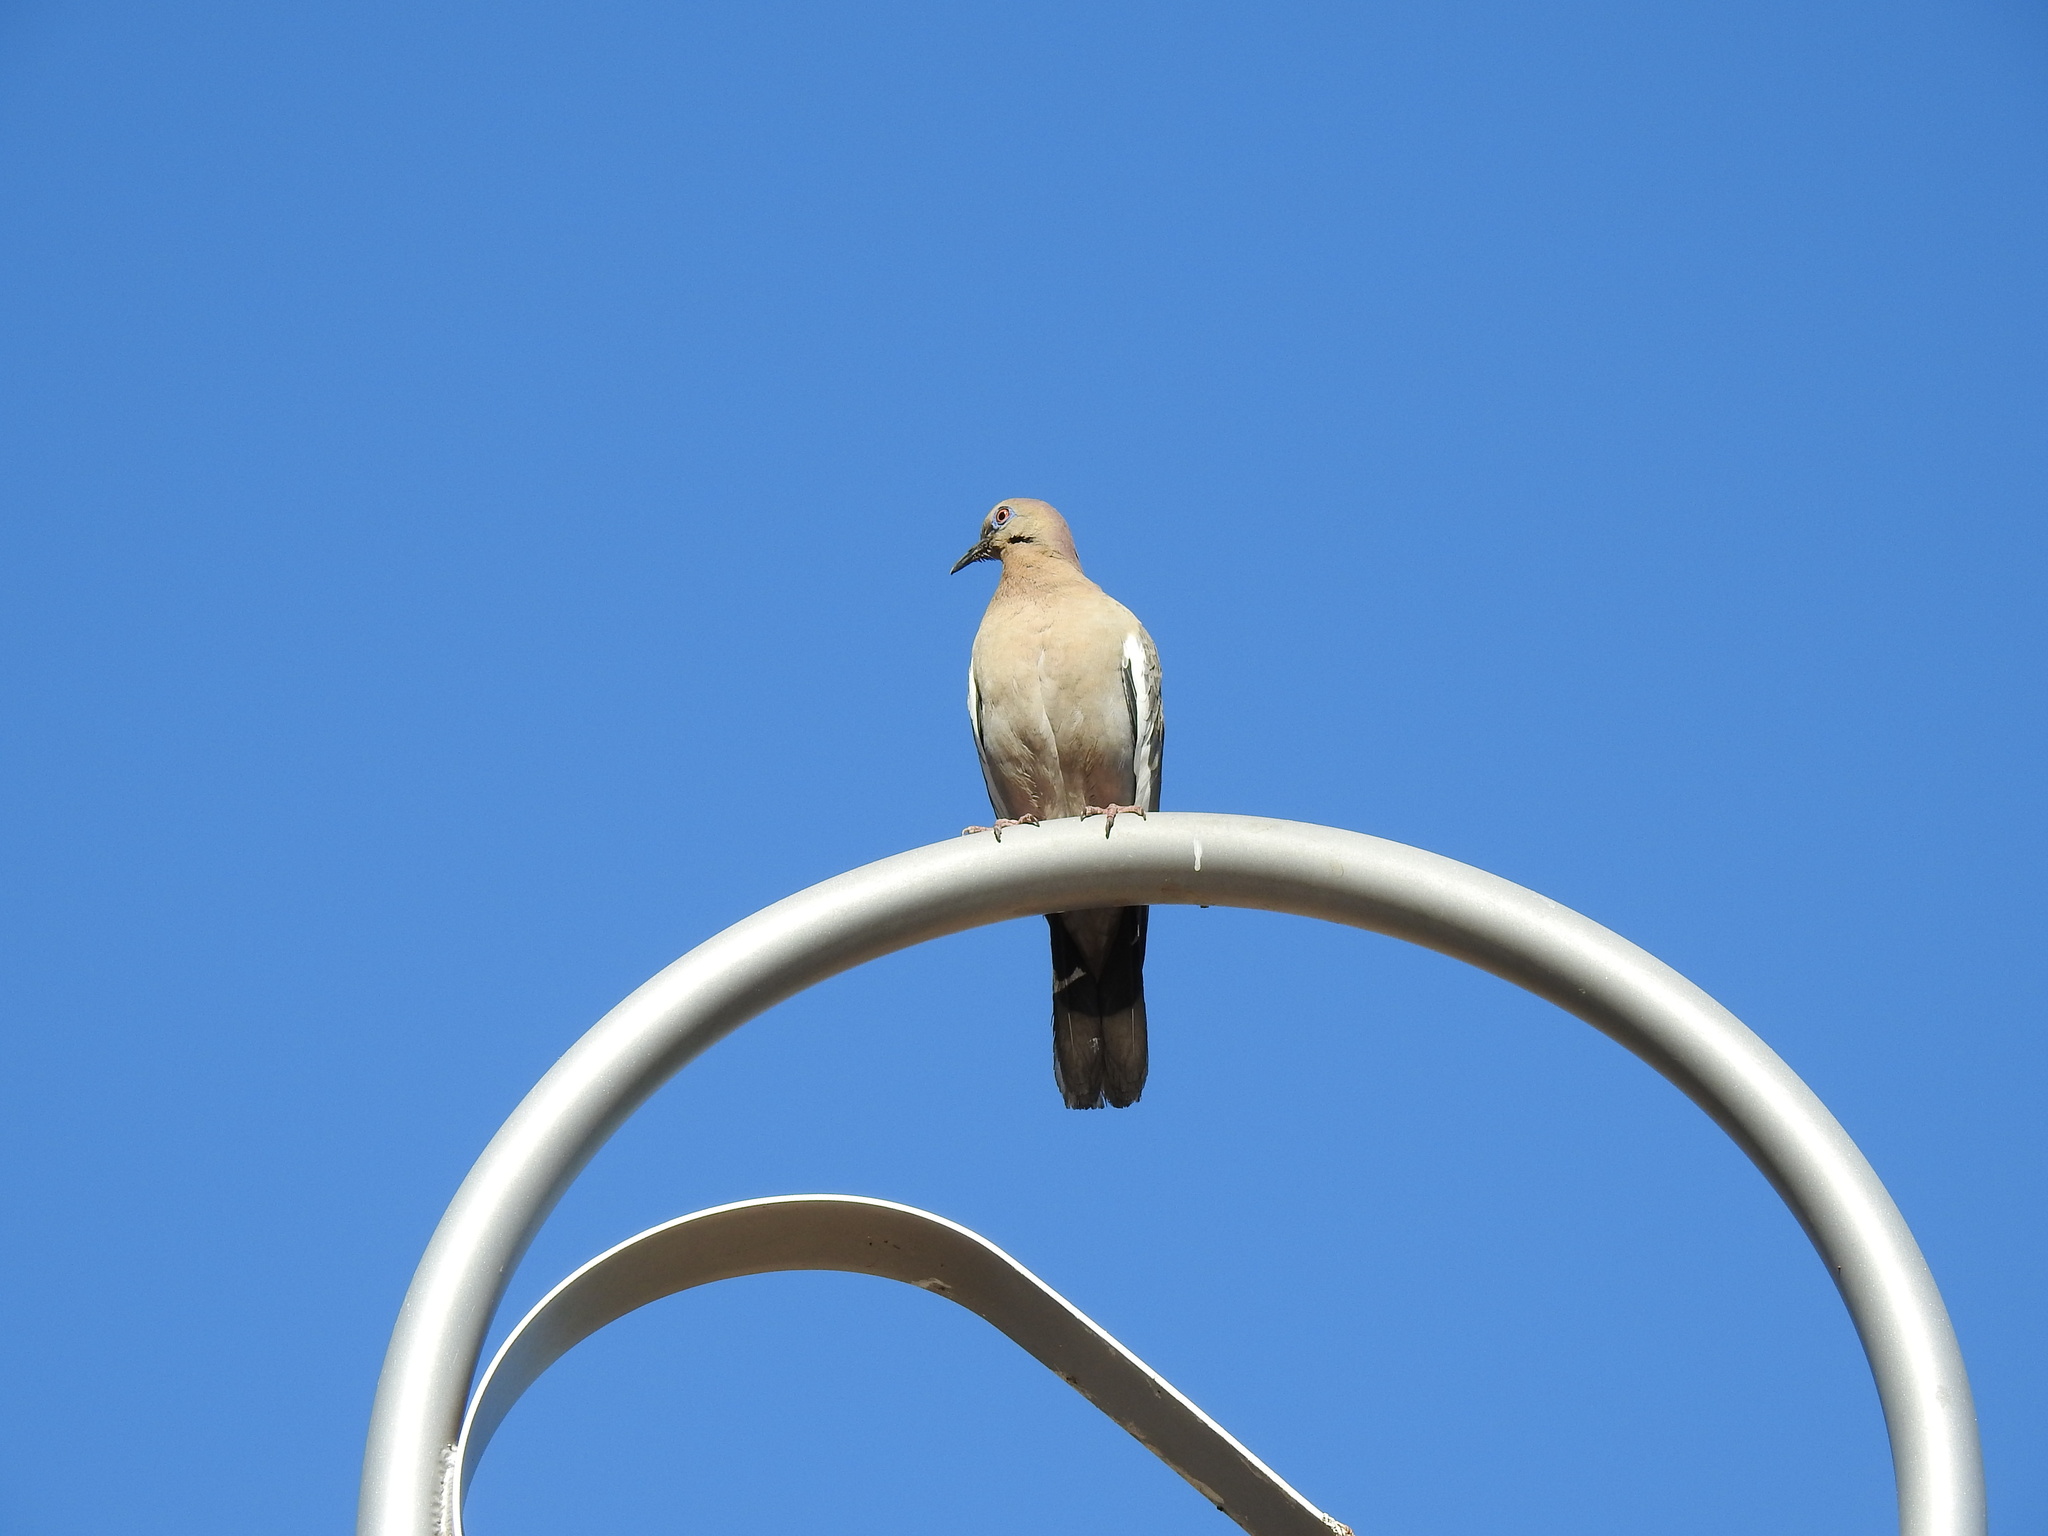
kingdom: Animalia
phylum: Chordata
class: Aves
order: Columbiformes
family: Columbidae
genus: Zenaida
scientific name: Zenaida asiatica
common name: White-winged dove
